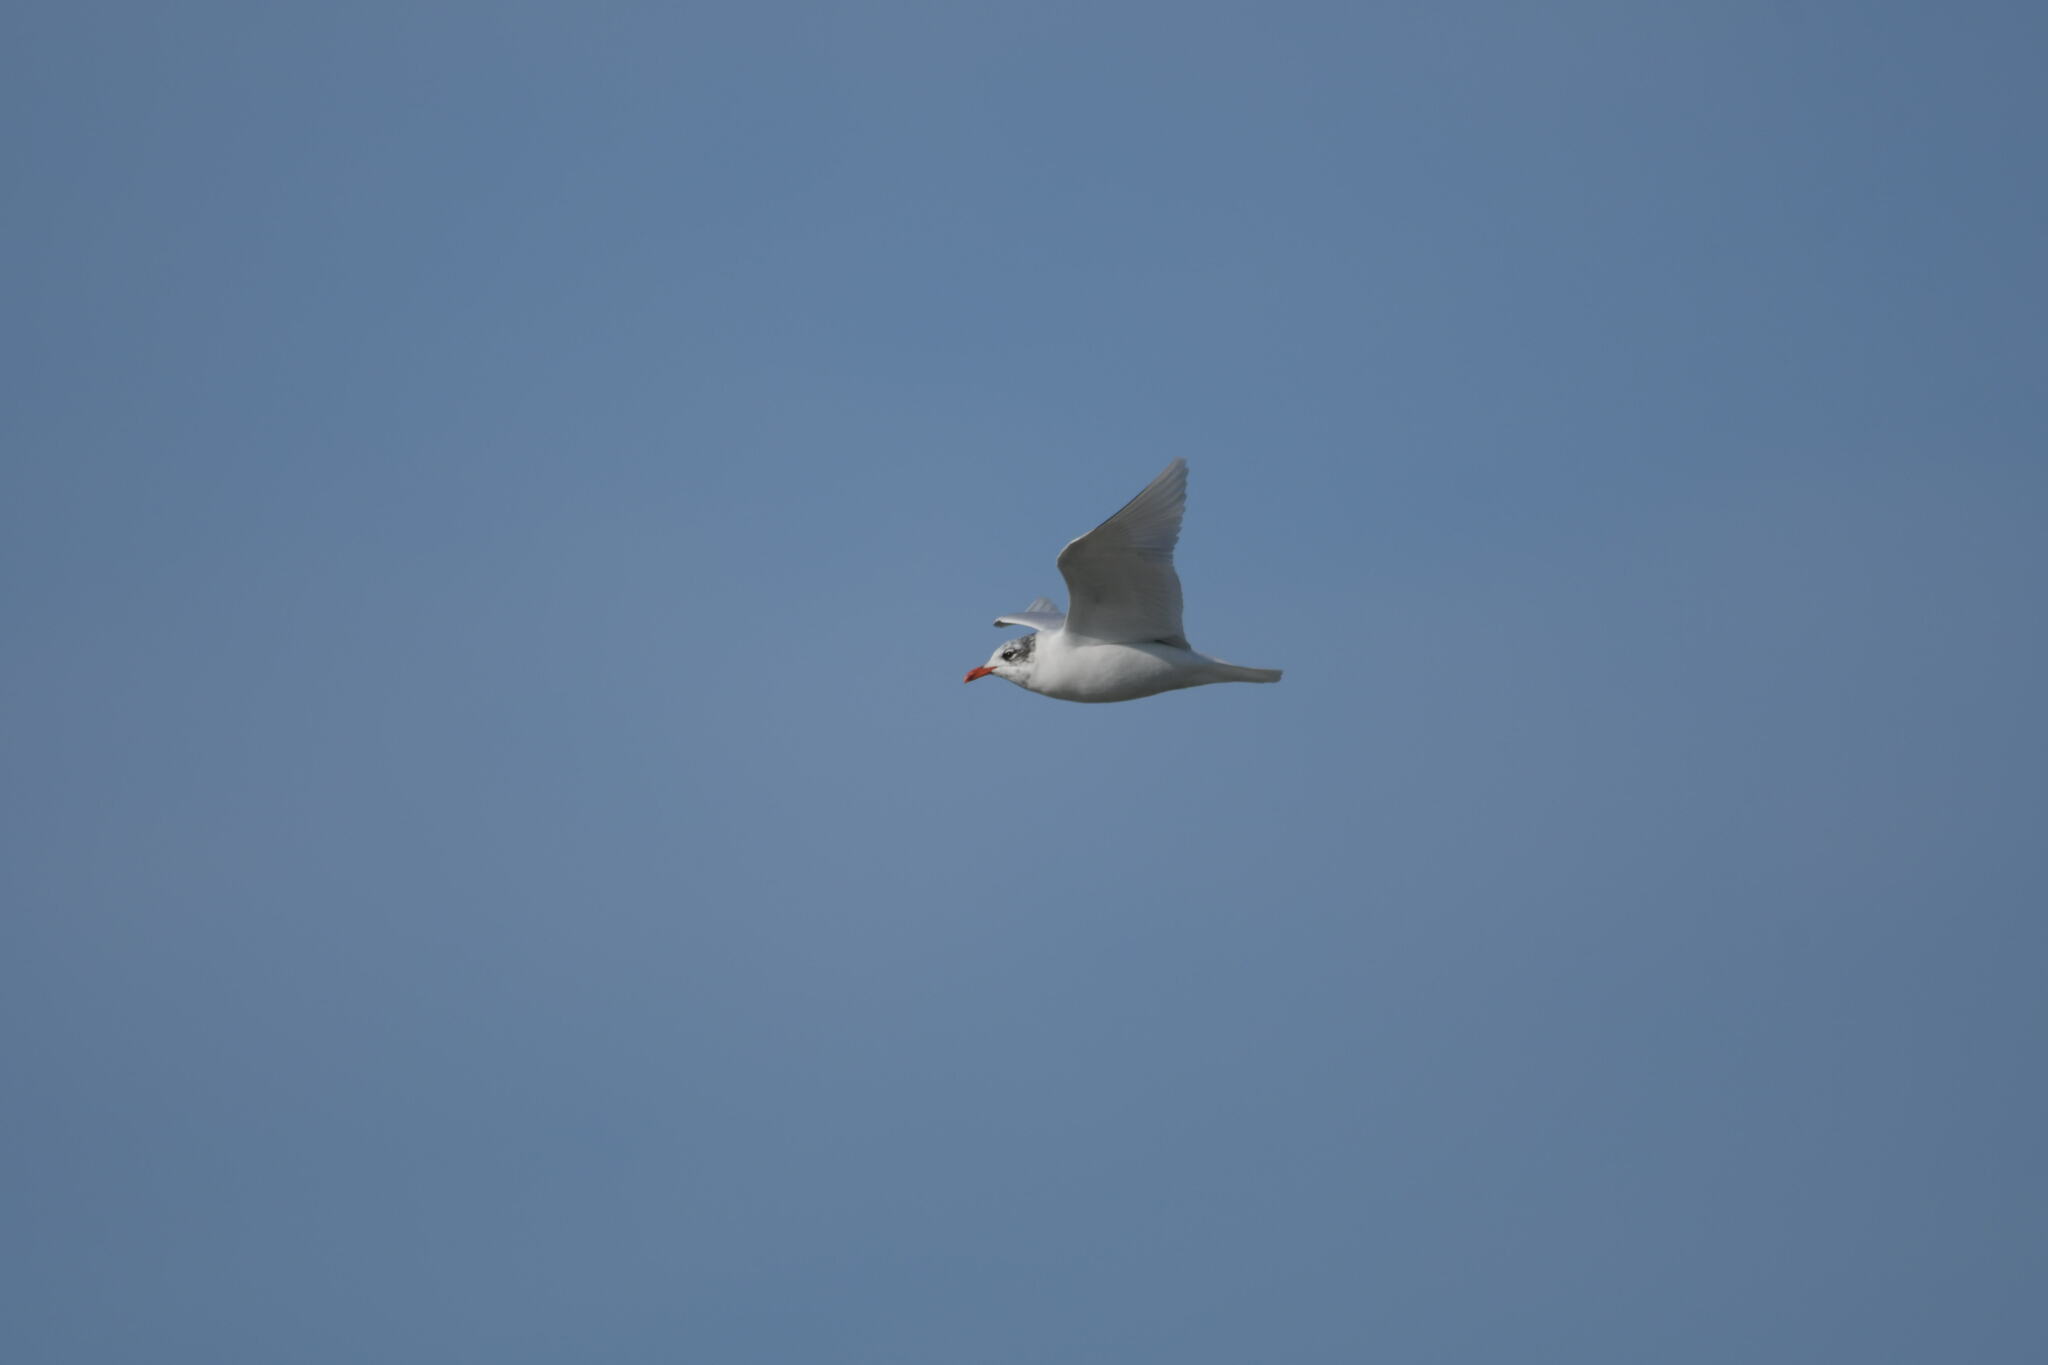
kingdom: Animalia
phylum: Chordata
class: Aves
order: Charadriiformes
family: Laridae
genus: Ichthyaetus
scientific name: Ichthyaetus melanocephalus
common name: Mediterranean gull
